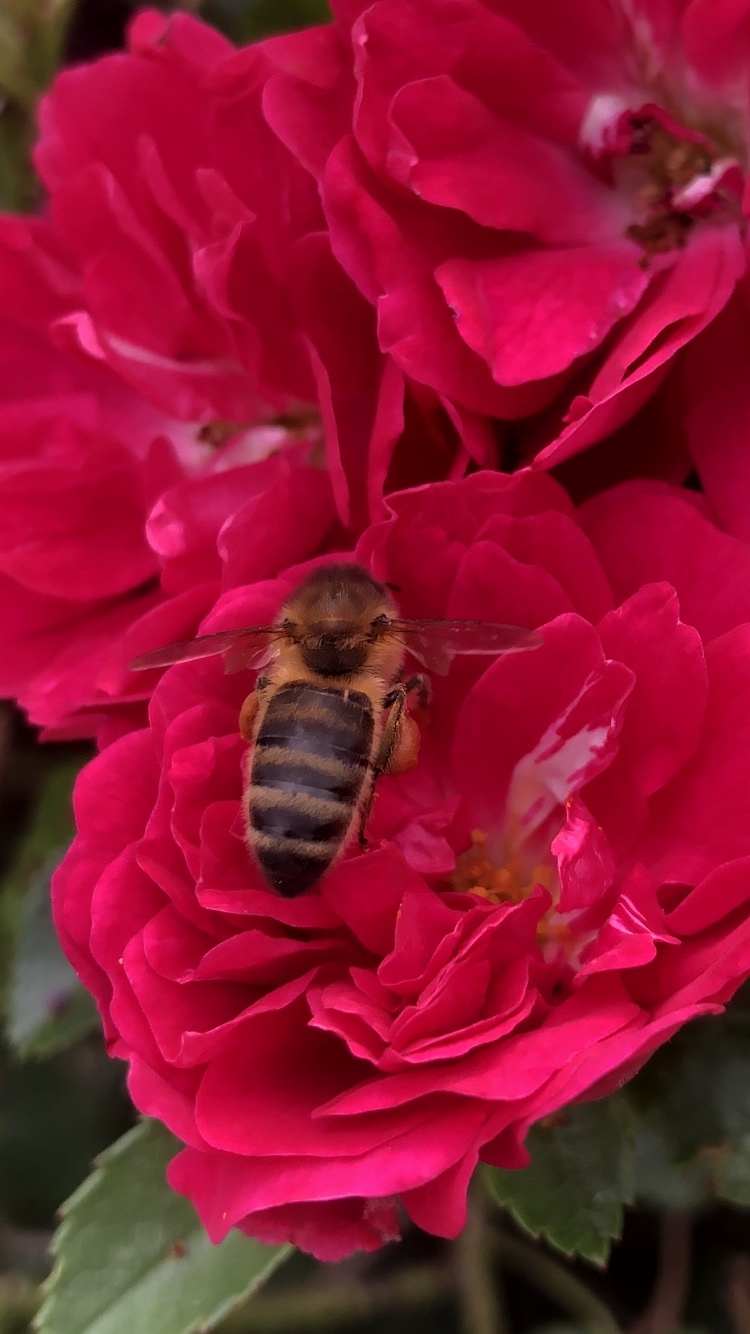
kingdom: Animalia
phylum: Arthropoda
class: Insecta
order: Hymenoptera
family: Apidae
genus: Apis
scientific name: Apis mellifera
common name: Honey bee
